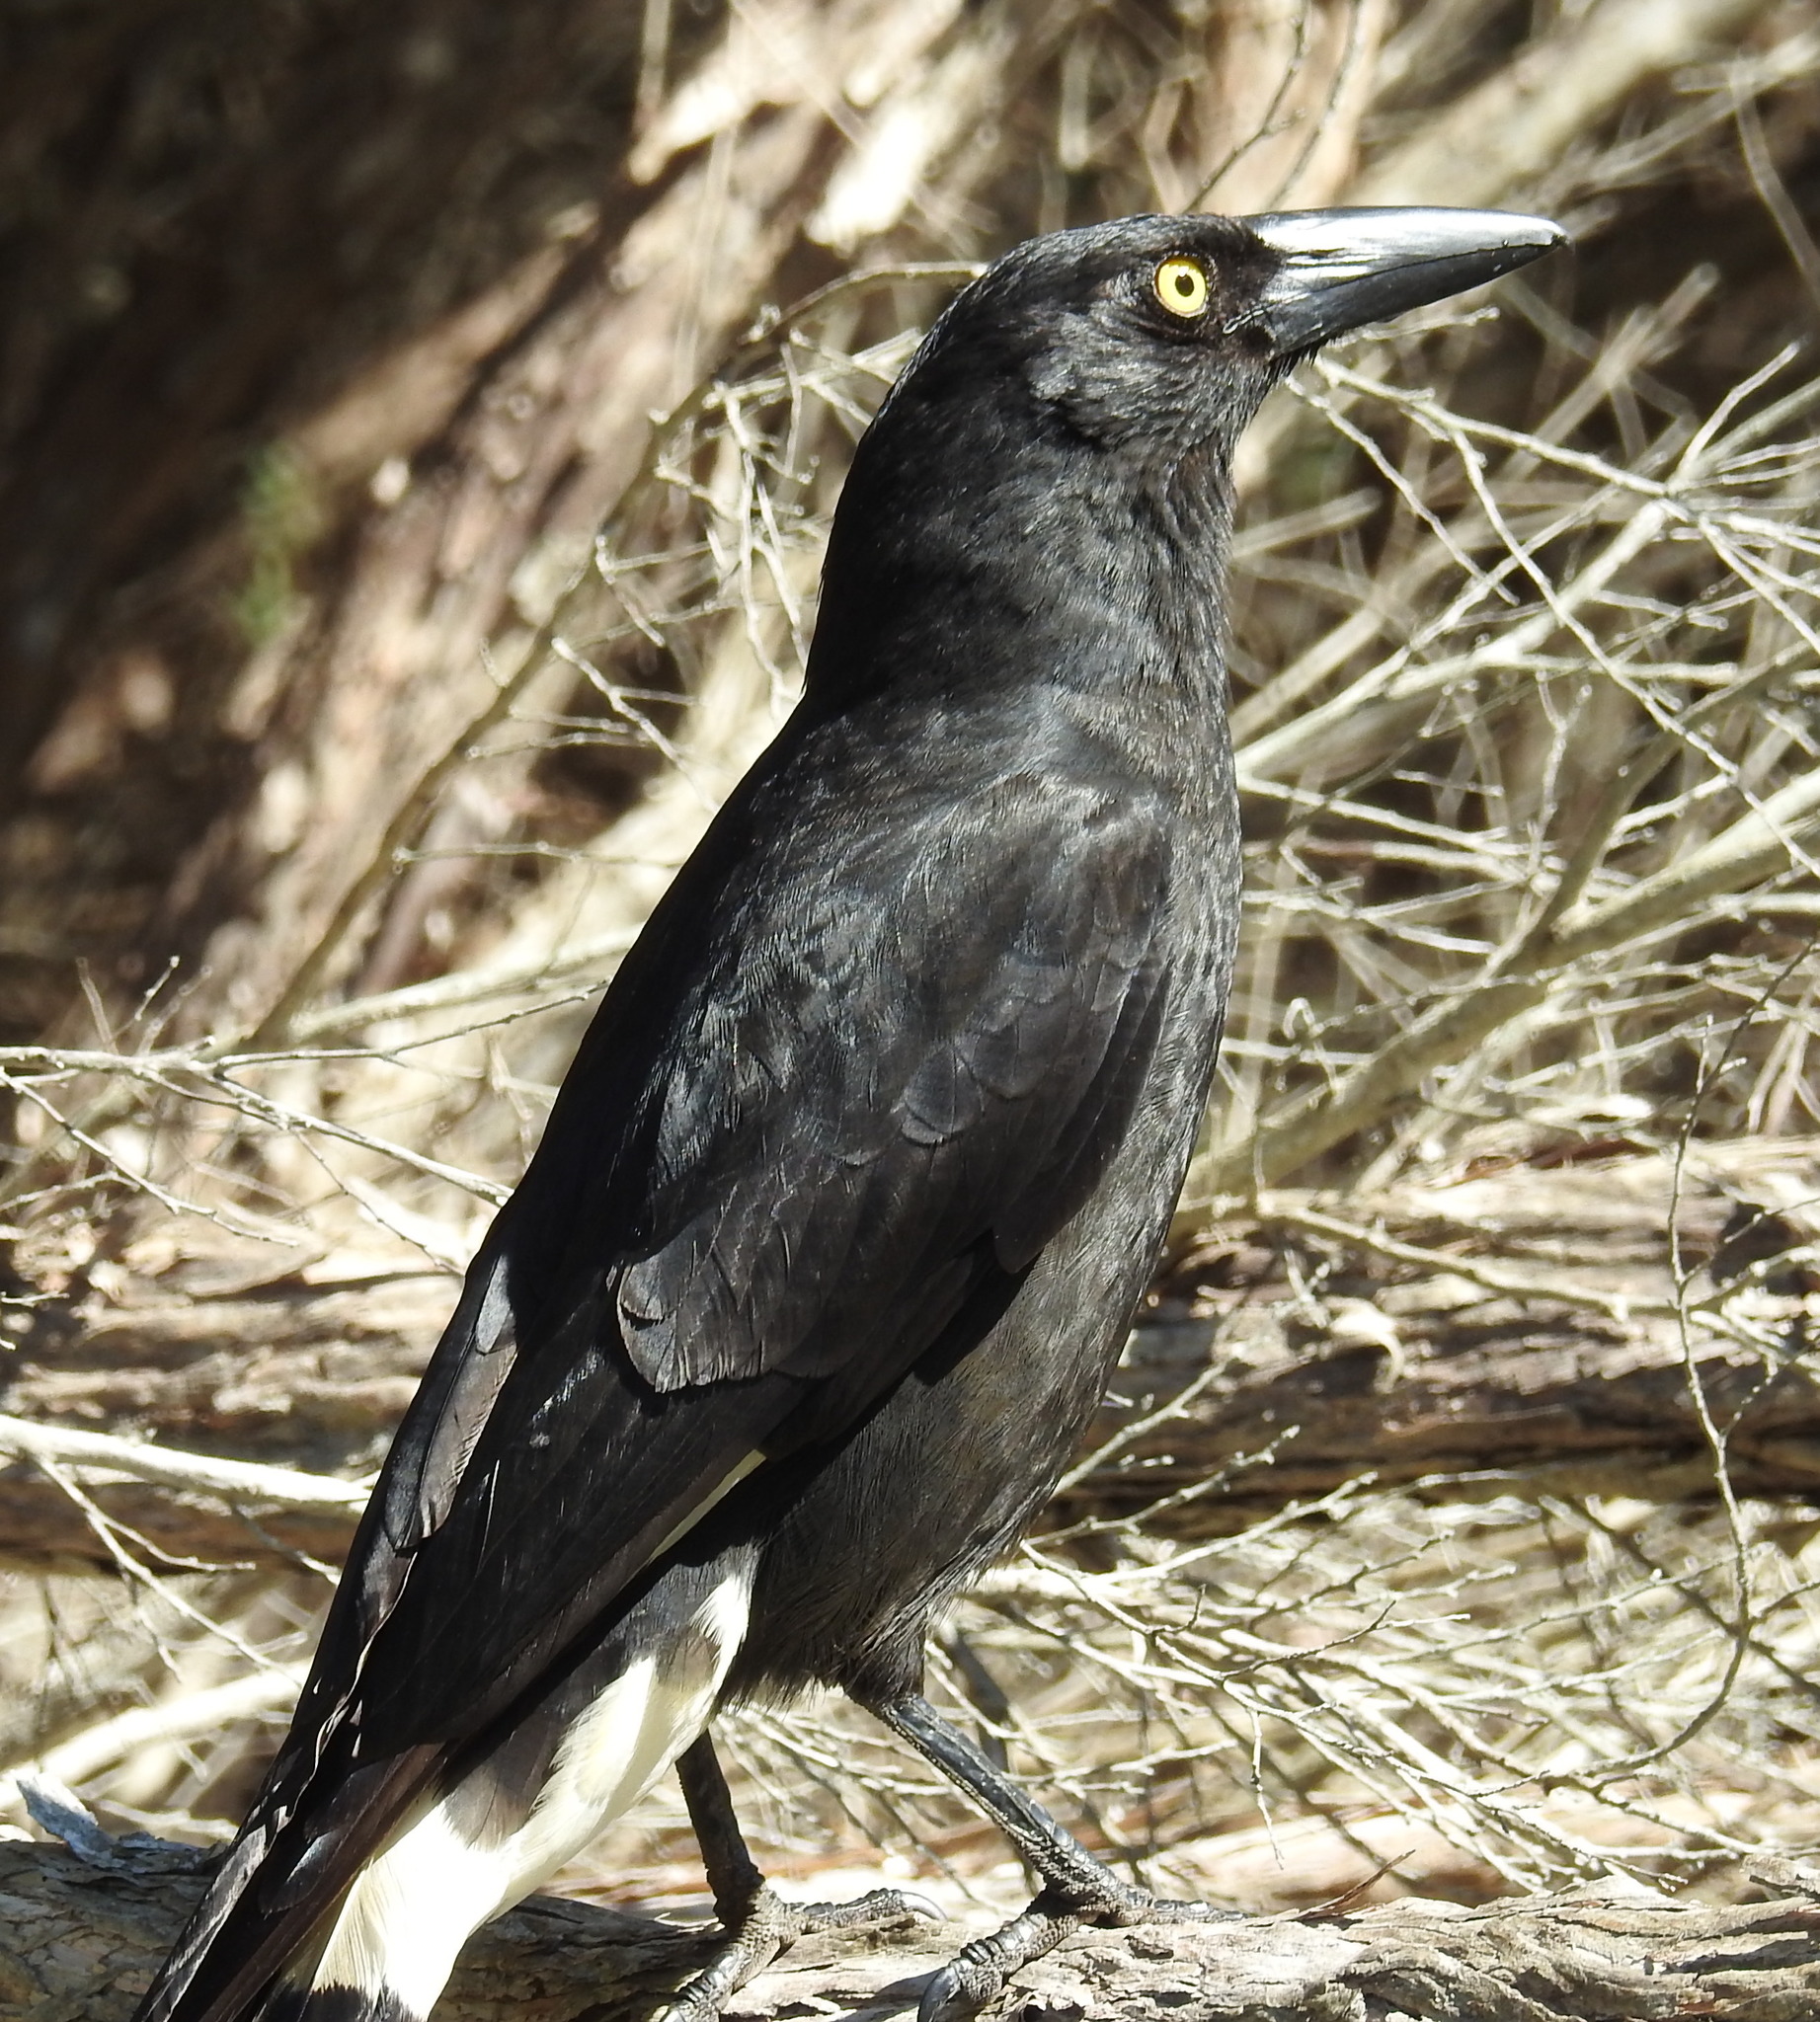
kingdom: Animalia
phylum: Chordata
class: Aves
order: Passeriformes
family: Cracticidae
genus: Strepera
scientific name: Strepera graculina
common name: Pied currawong
